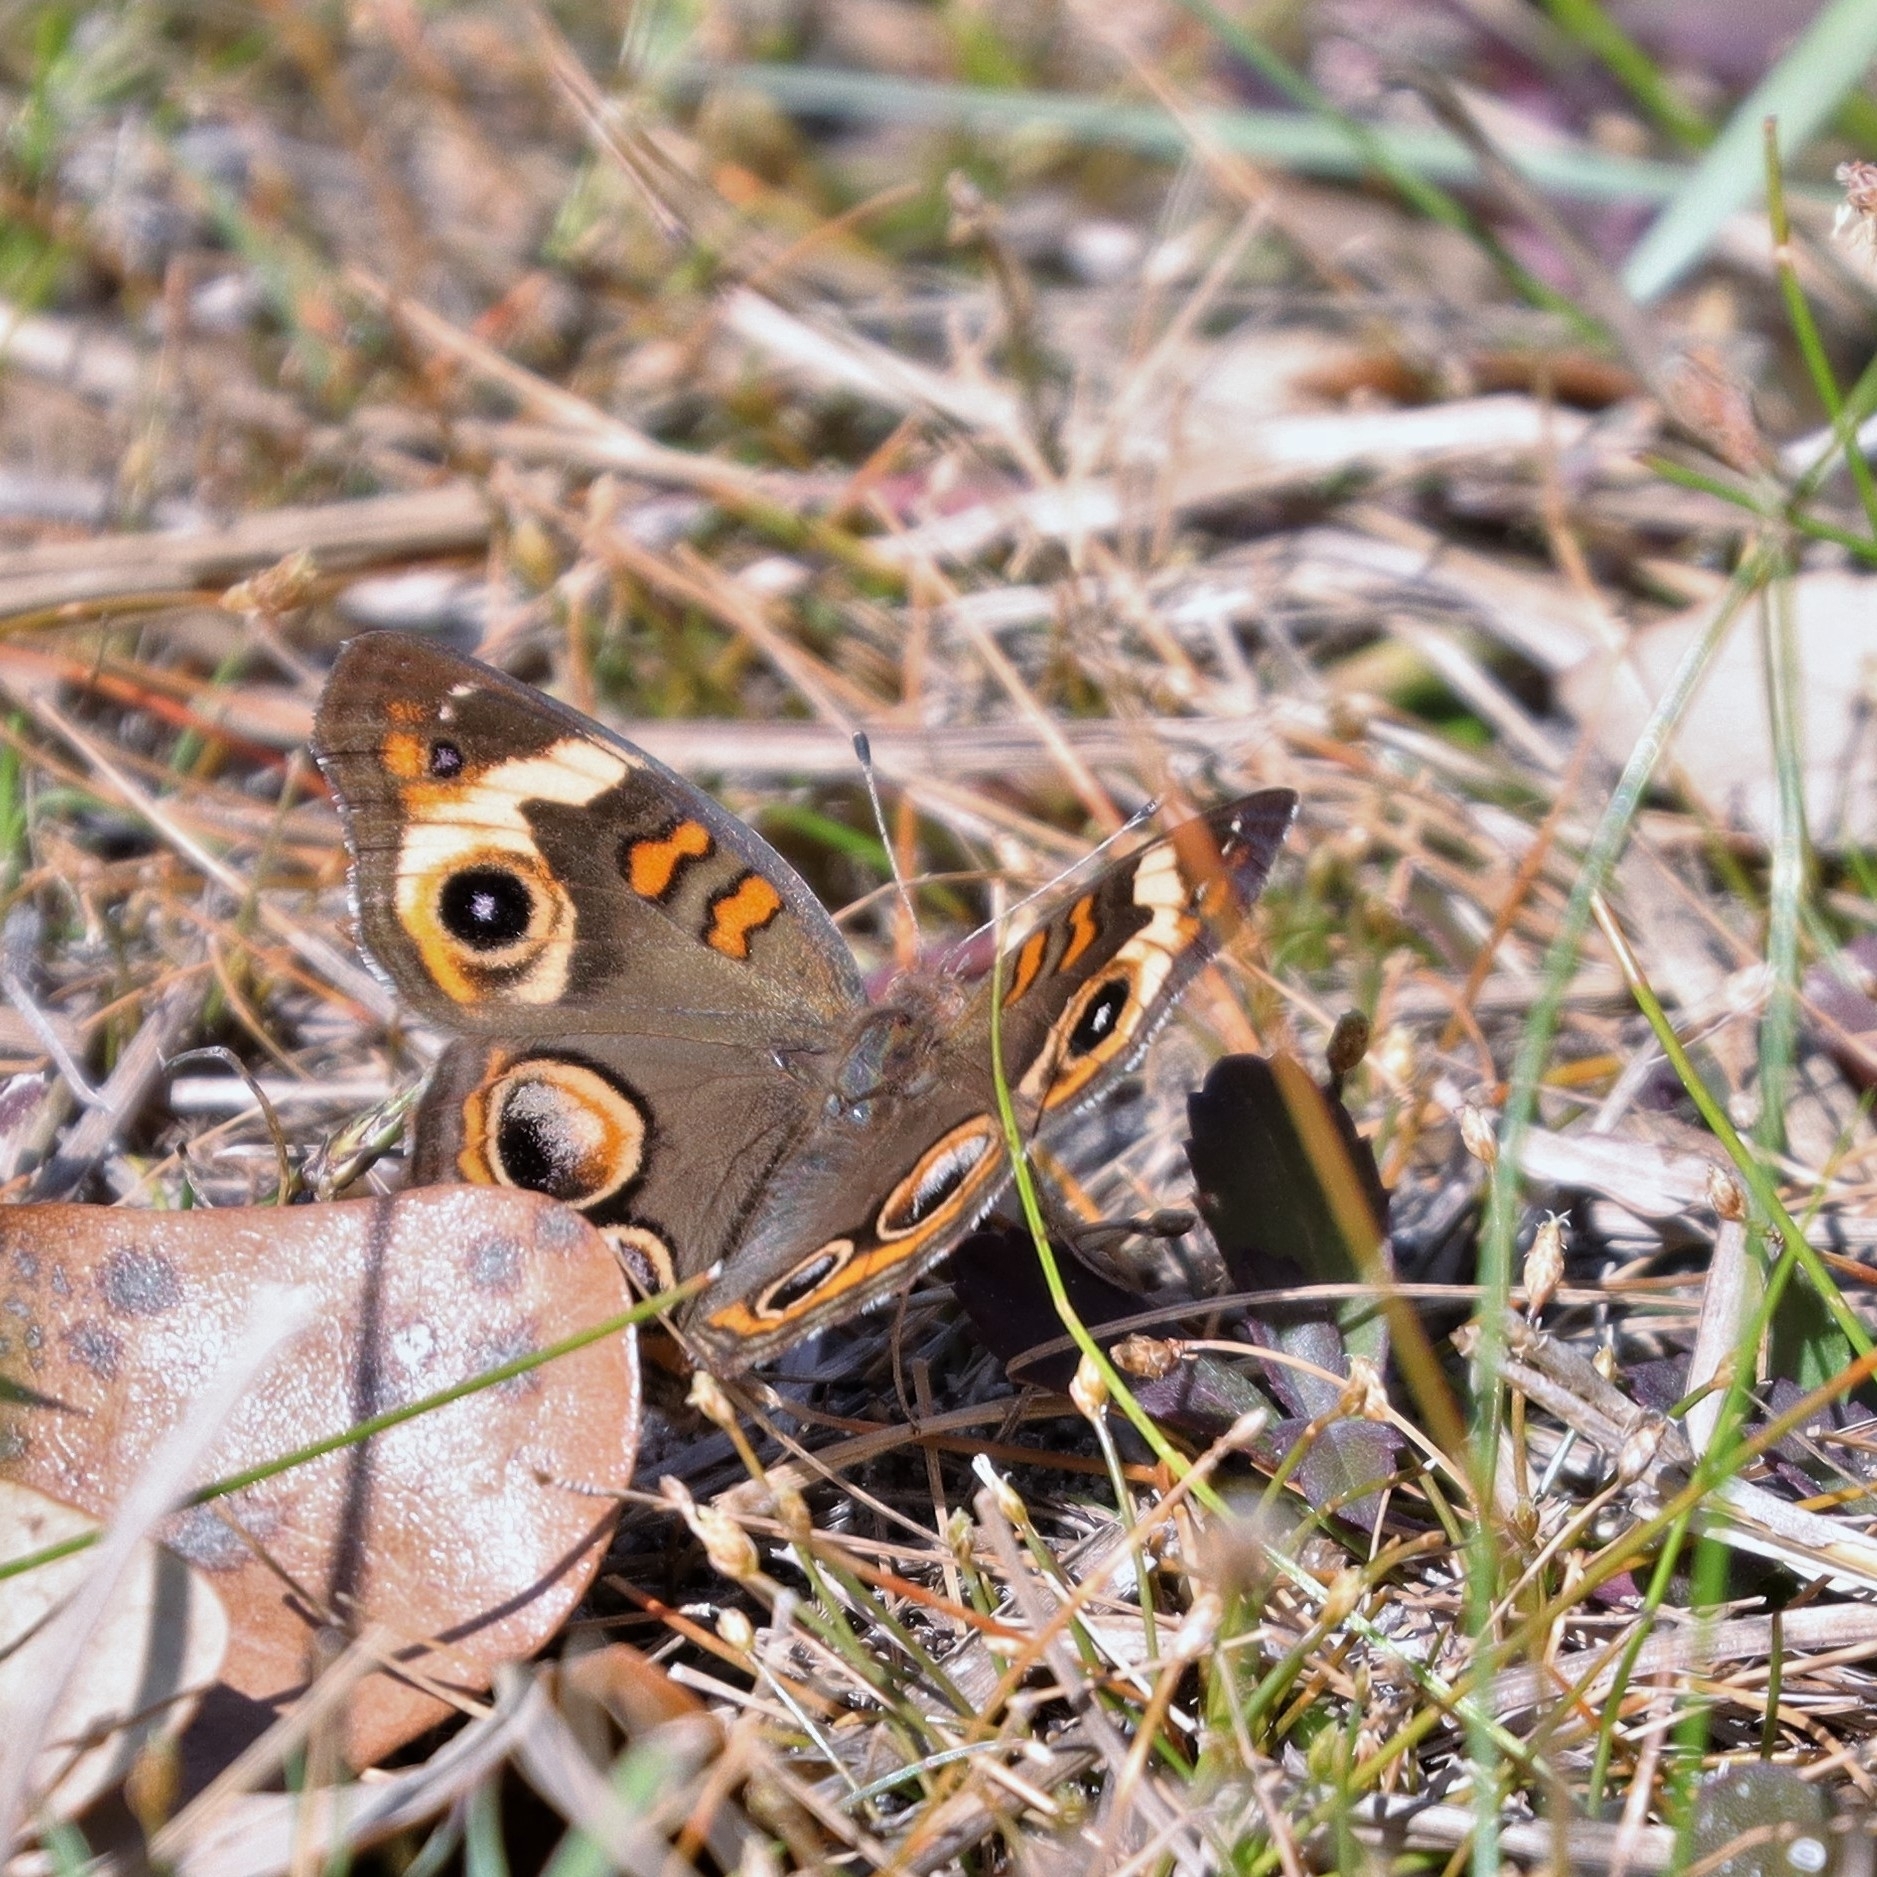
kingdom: Animalia
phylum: Arthropoda
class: Insecta
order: Lepidoptera
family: Nymphalidae
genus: Junonia
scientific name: Junonia coenia
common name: Common buckeye
